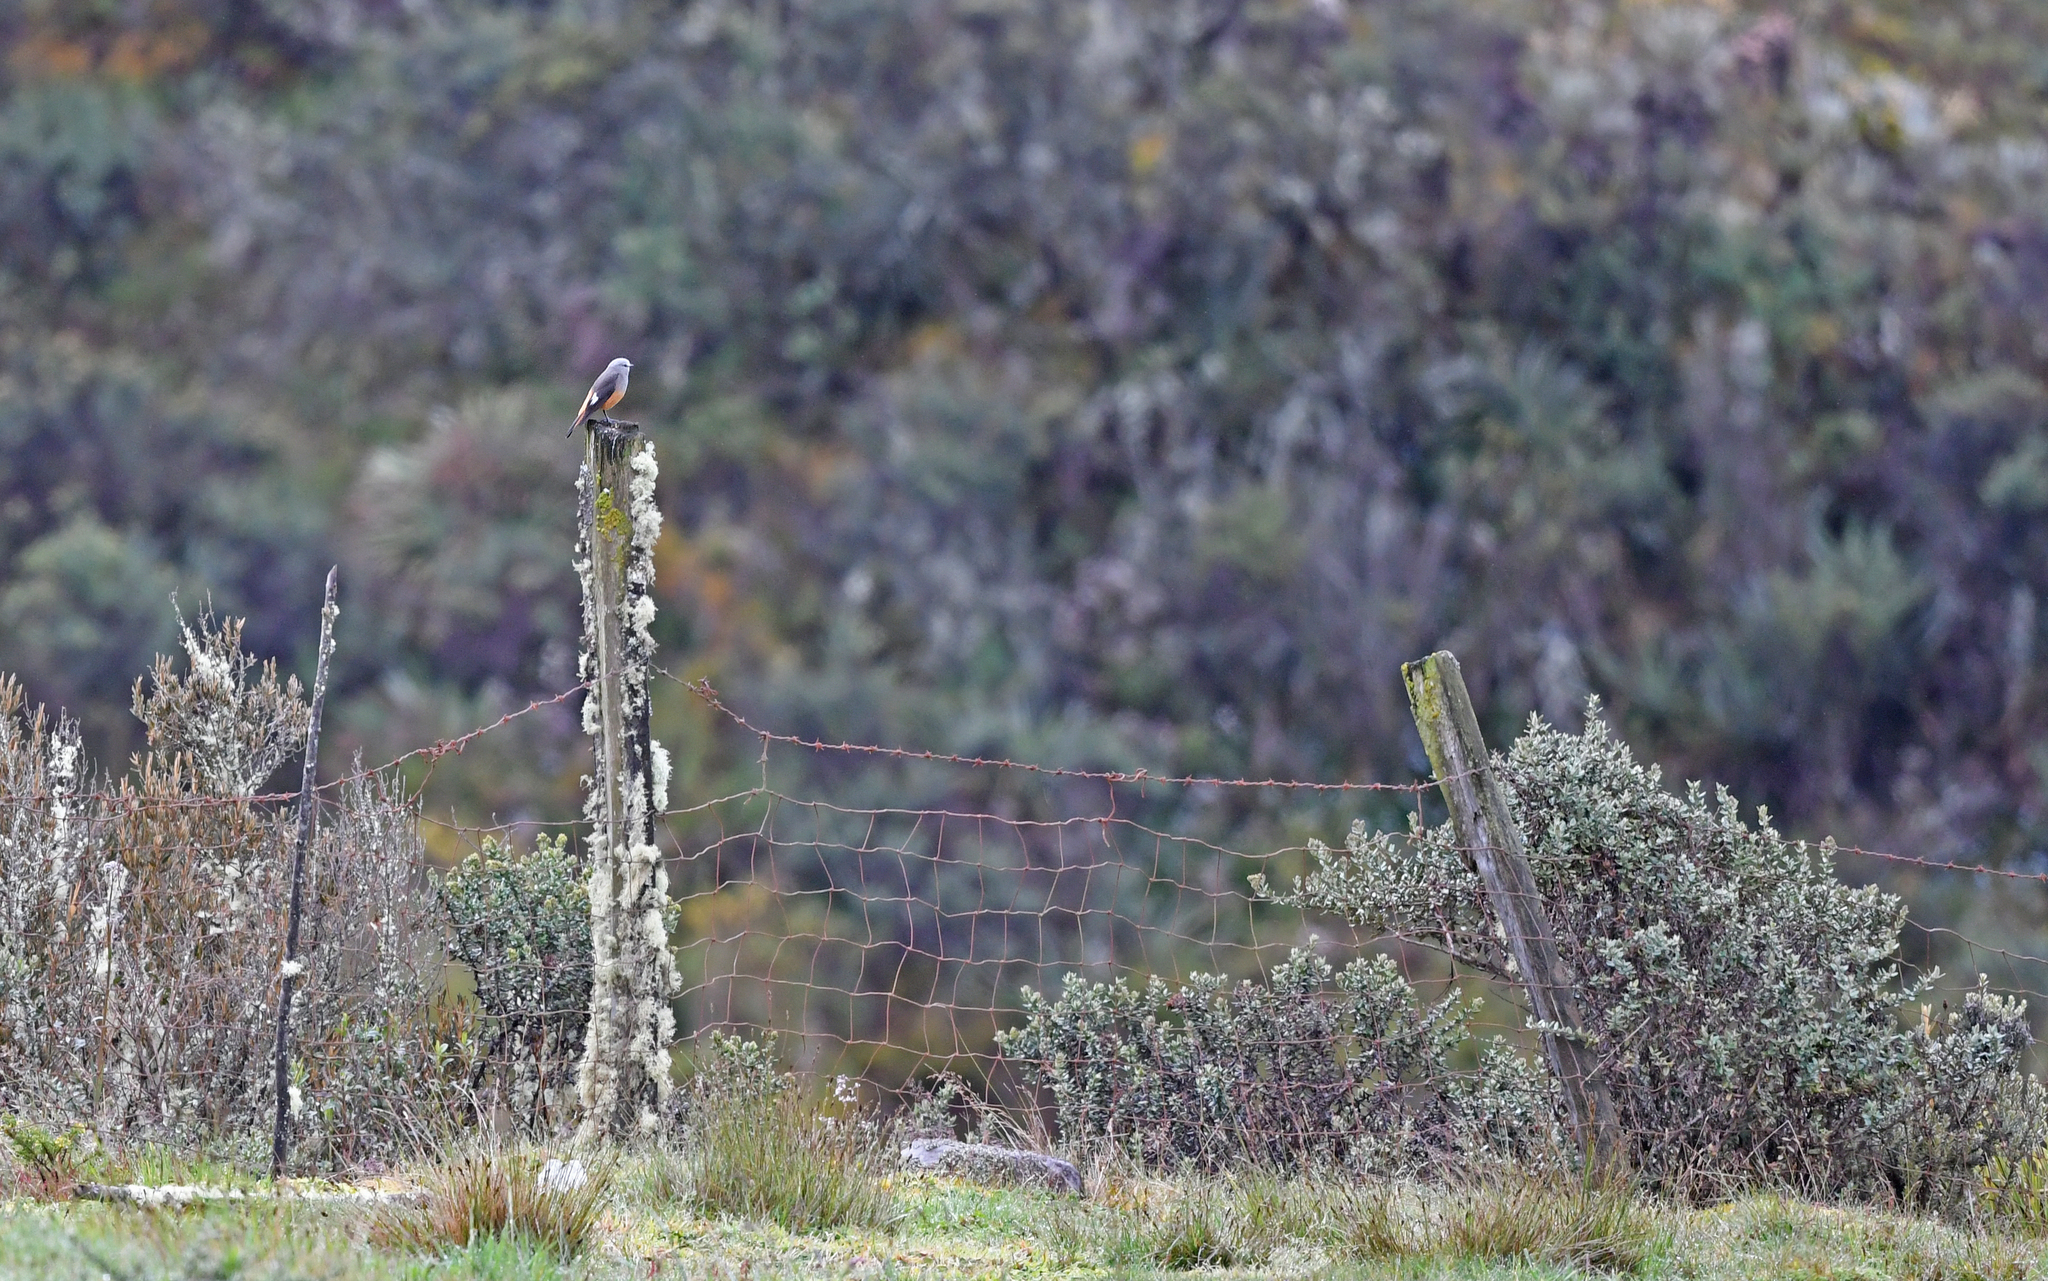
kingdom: Animalia
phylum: Chordata
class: Aves
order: Passeriformes
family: Tyrannidae
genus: Cnemarchus
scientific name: Cnemarchus erythropygius
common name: Red-rumped bush tyrant
